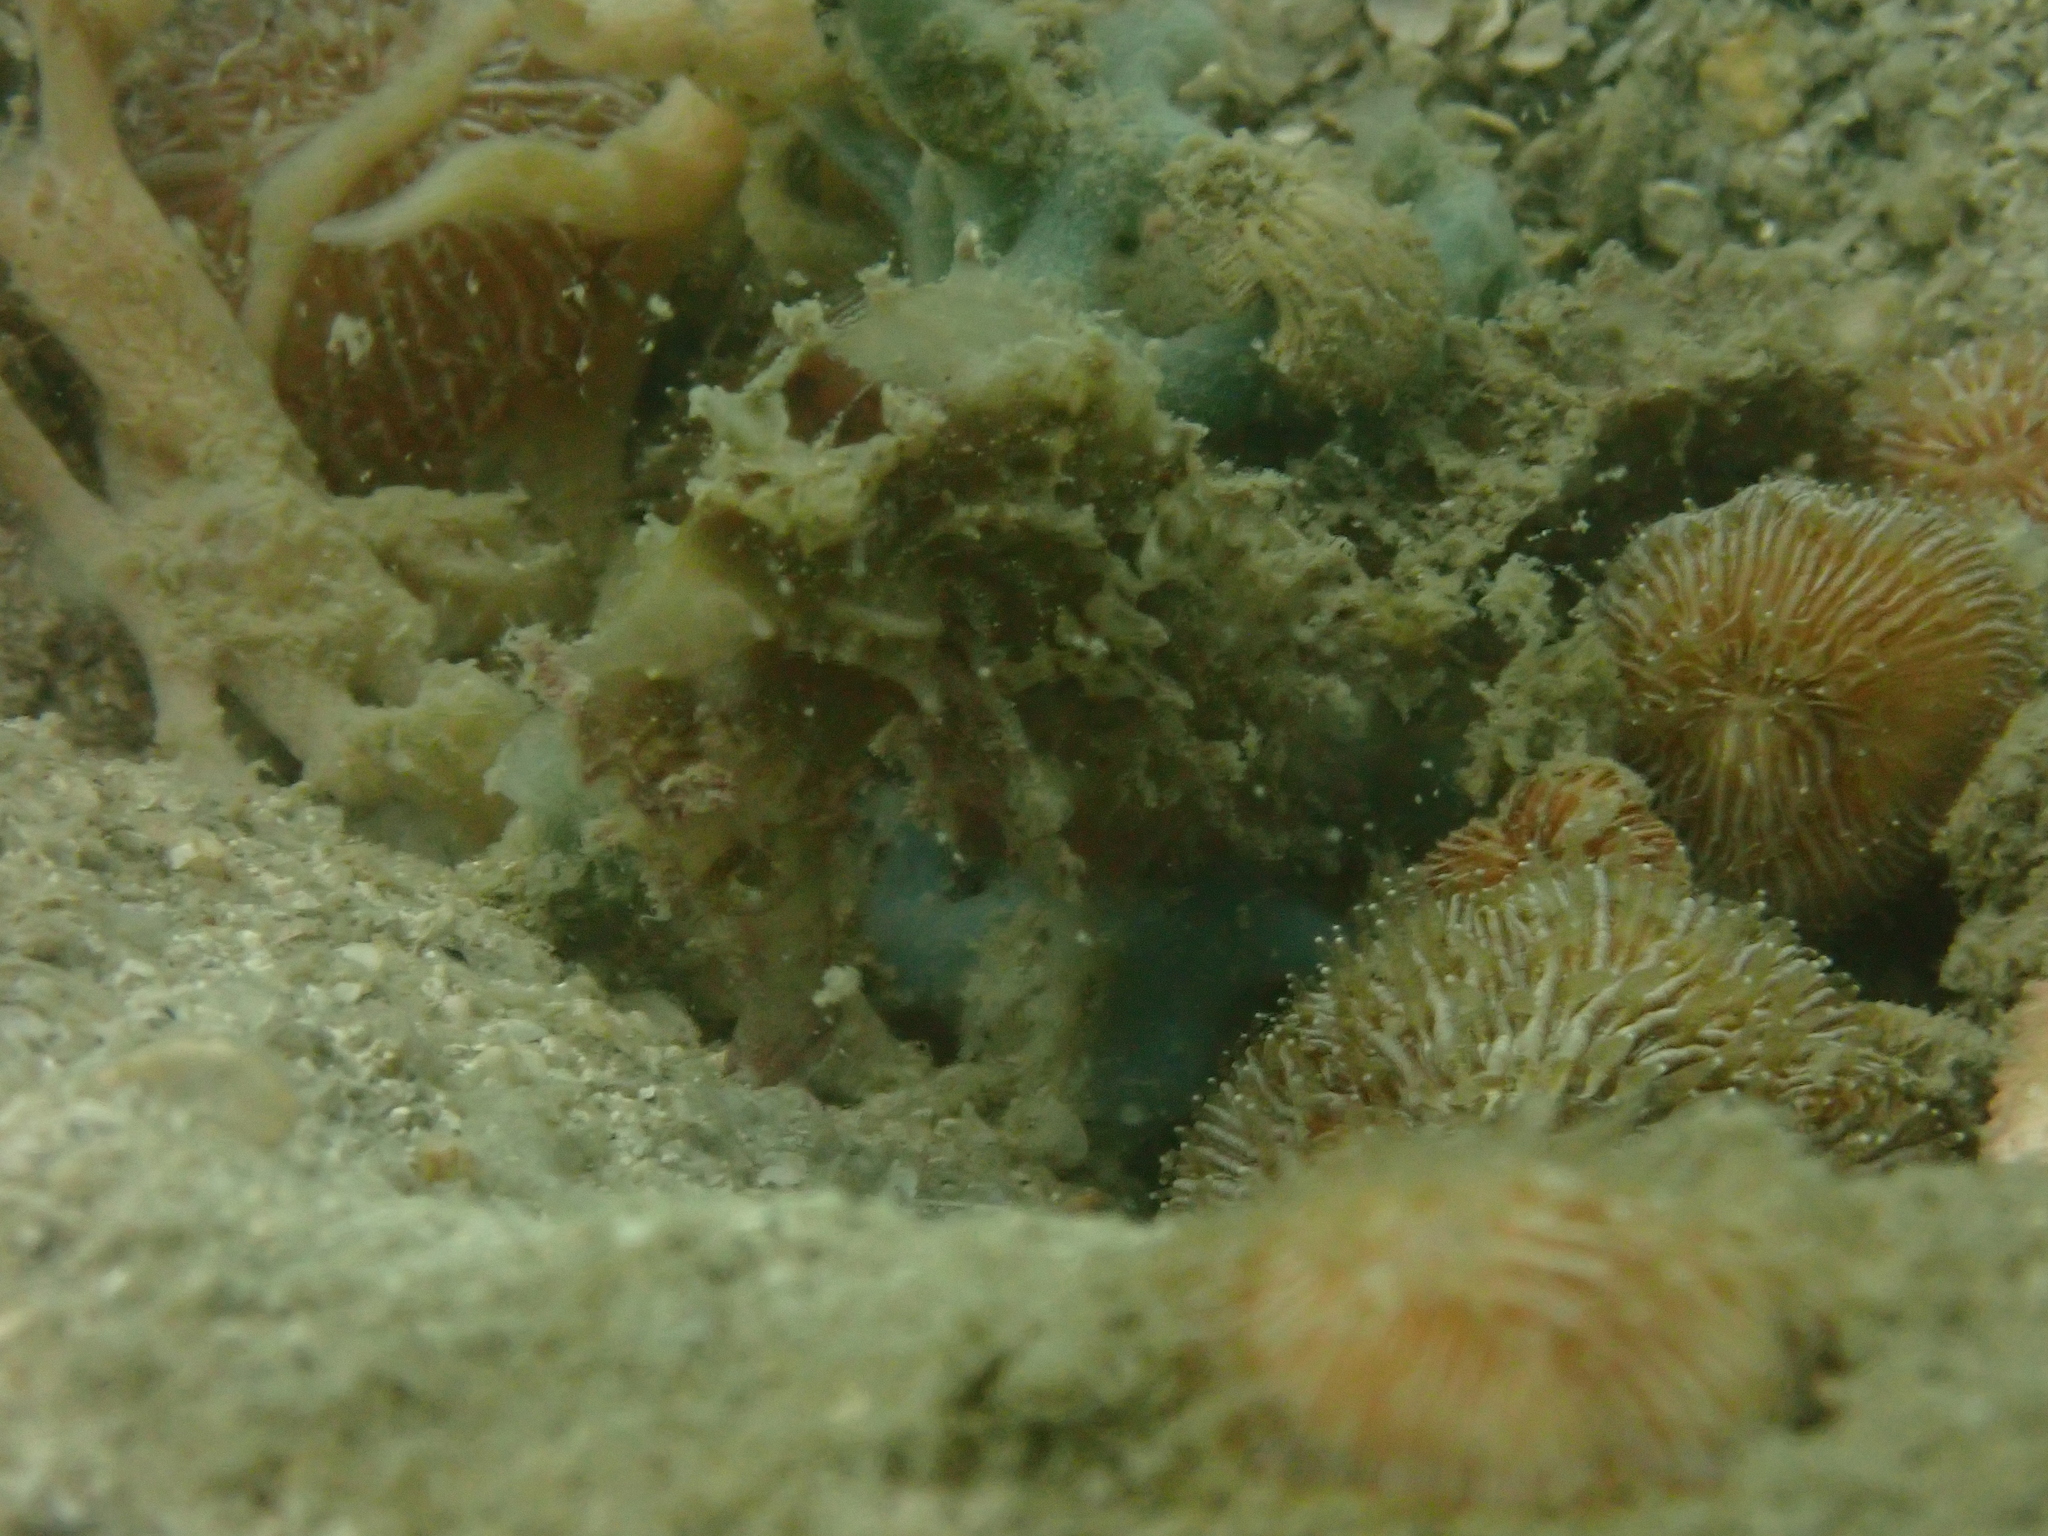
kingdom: Animalia
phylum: Chordata
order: Syngnathiformes
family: Syngnathidae
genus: Hippocampus
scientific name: Hippocampus spinosissimus
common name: Hedgehog seahorse
